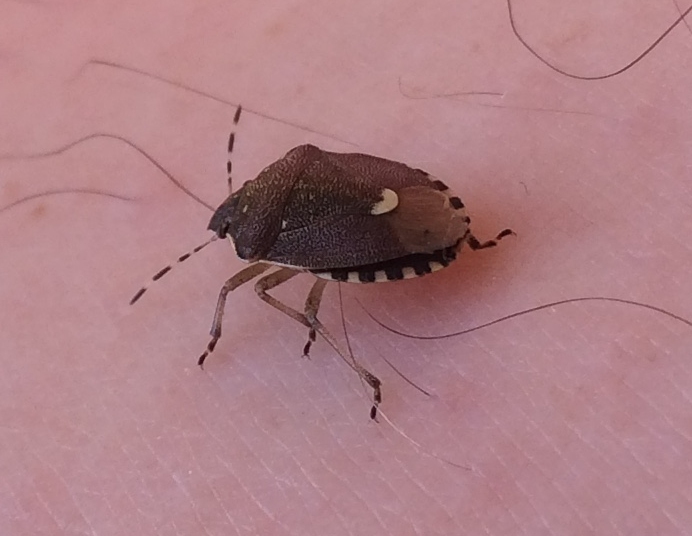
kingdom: Animalia
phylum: Arthropoda
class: Insecta
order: Hemiptera
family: Pentatomidae
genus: Holcostethus
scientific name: Holcostethus sphacelatus
